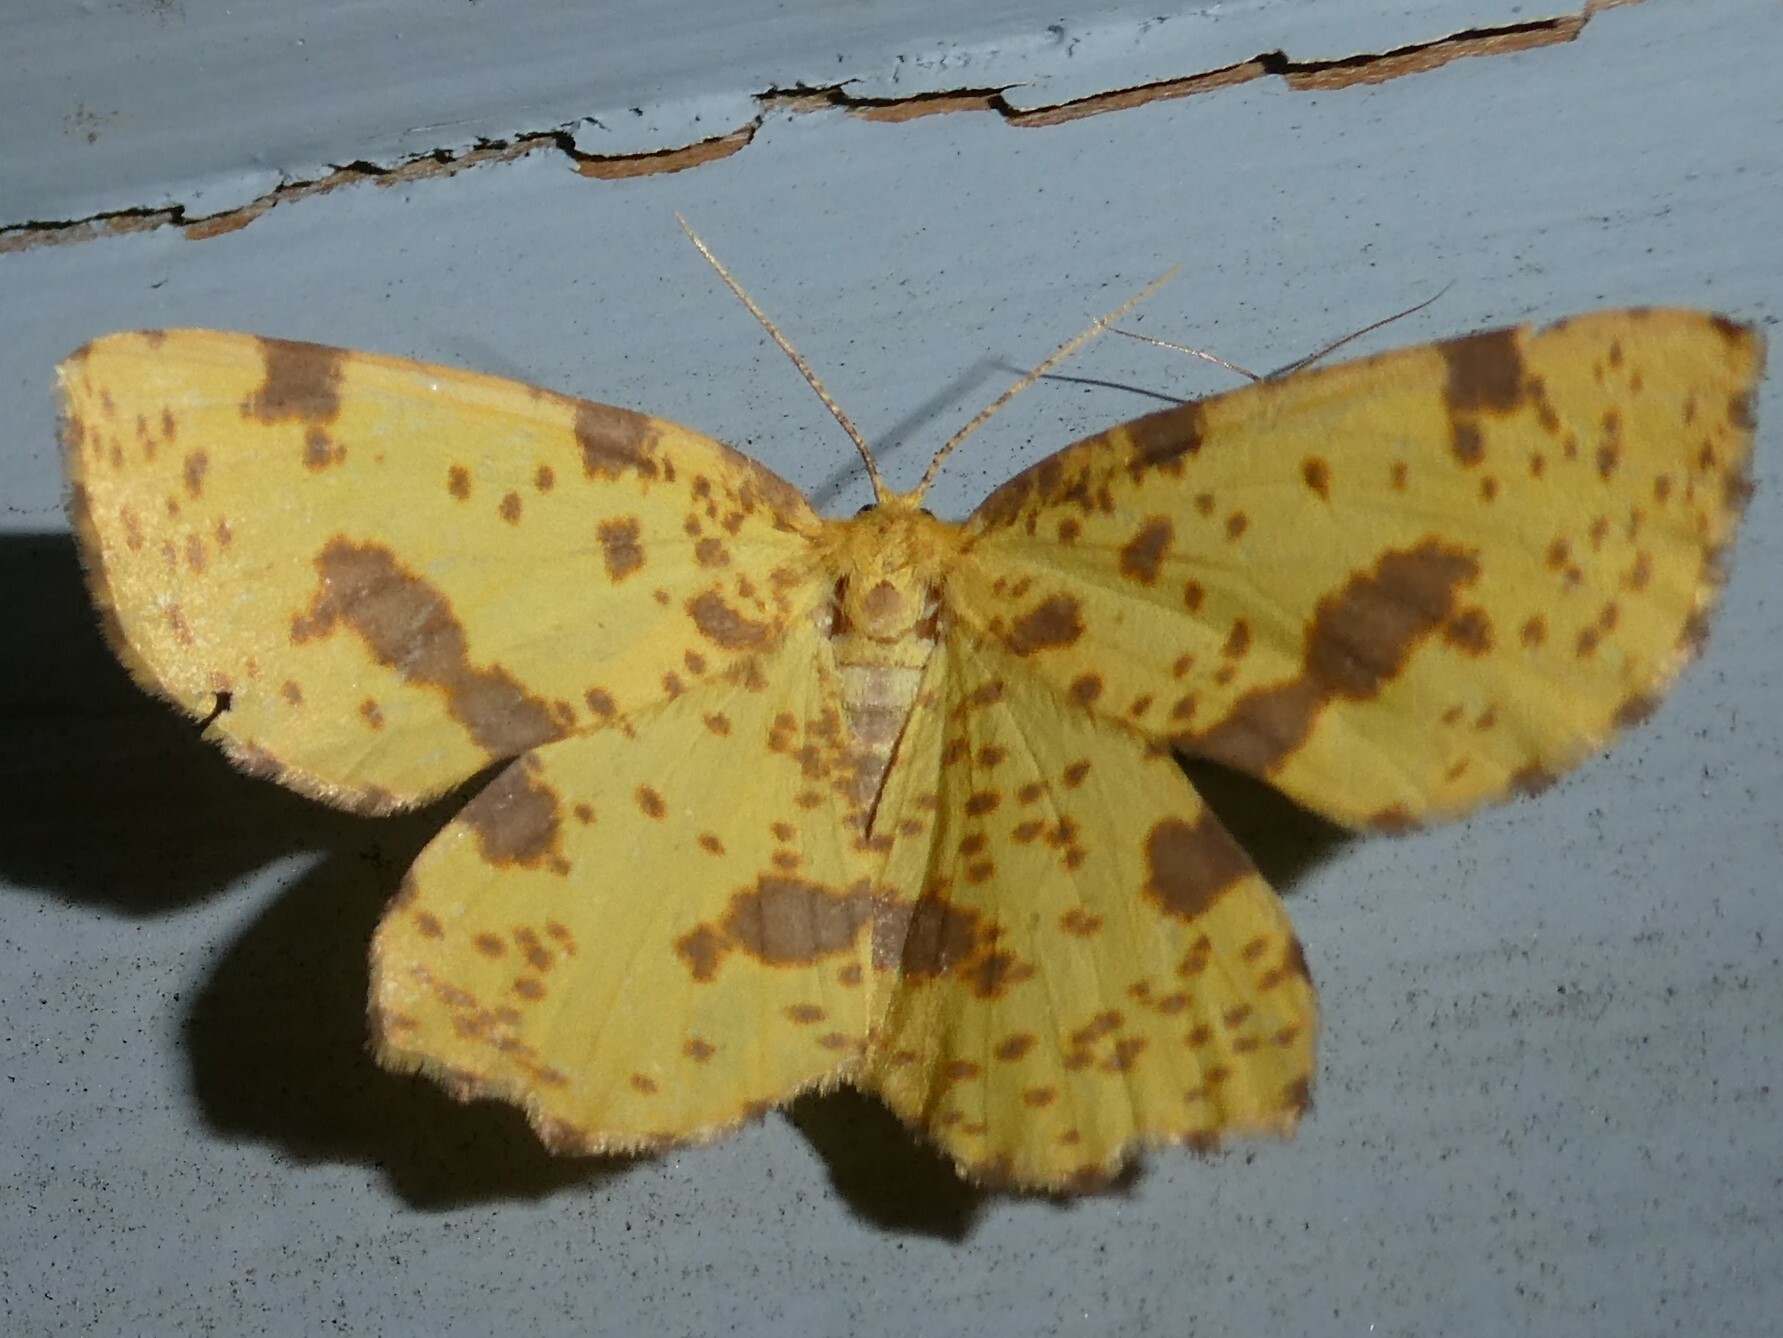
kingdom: Animalia
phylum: Arthropoda
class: Insecta
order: Lepidoptera
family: Geometridae
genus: Xanthotype
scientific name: Xanthotype
